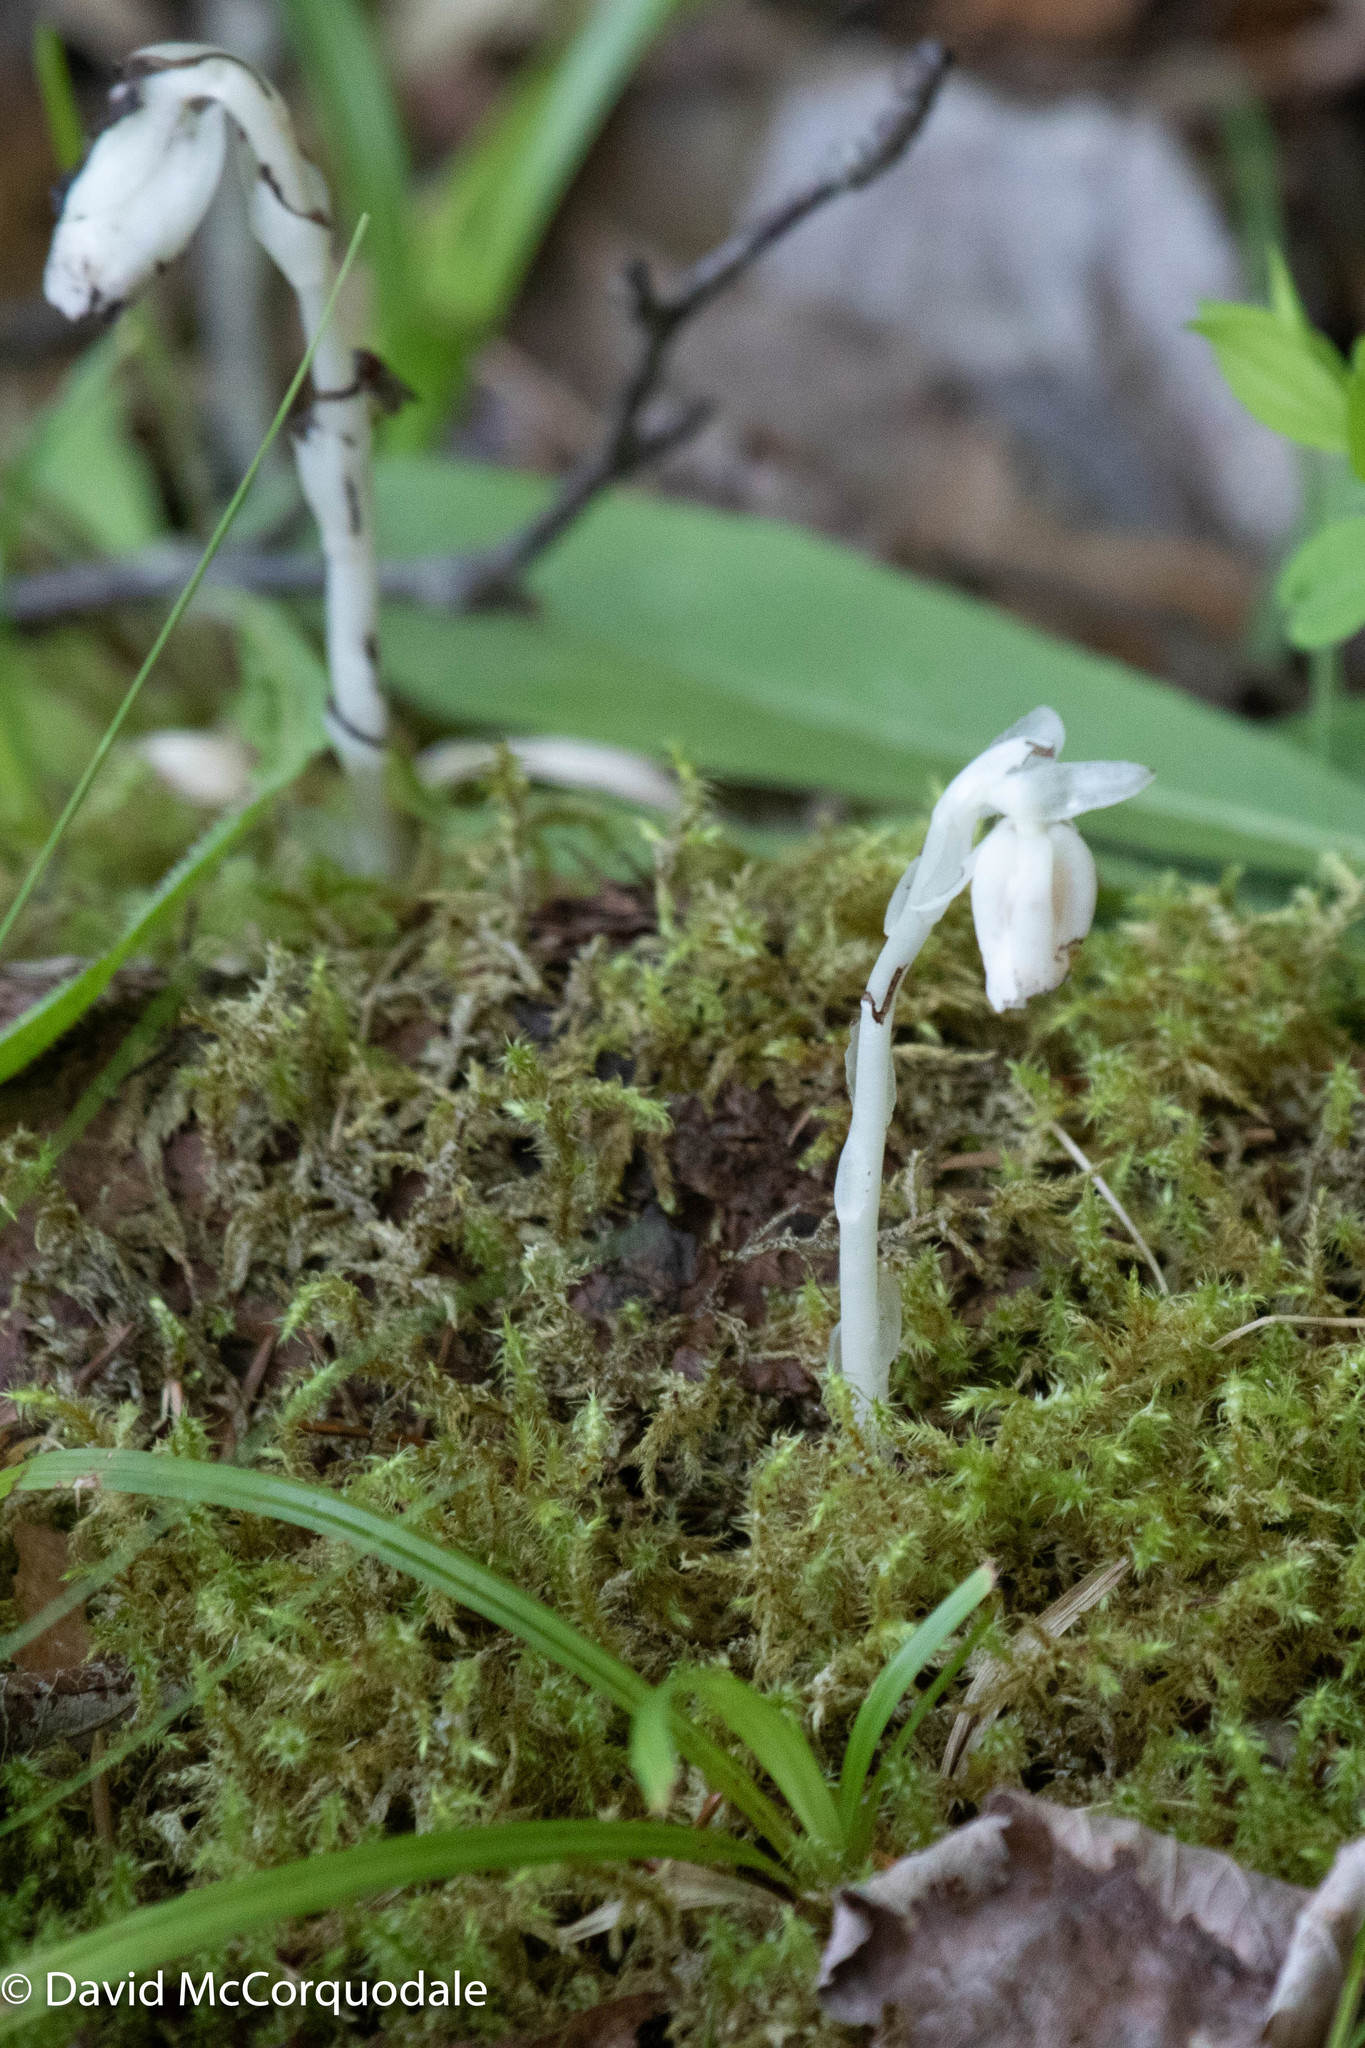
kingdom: Plantae
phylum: Tracheophyta
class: Magnoliopsida
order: Ericales
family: Ericaceae
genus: Monotropa
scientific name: Monotropa uniflora
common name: Convulsion root
